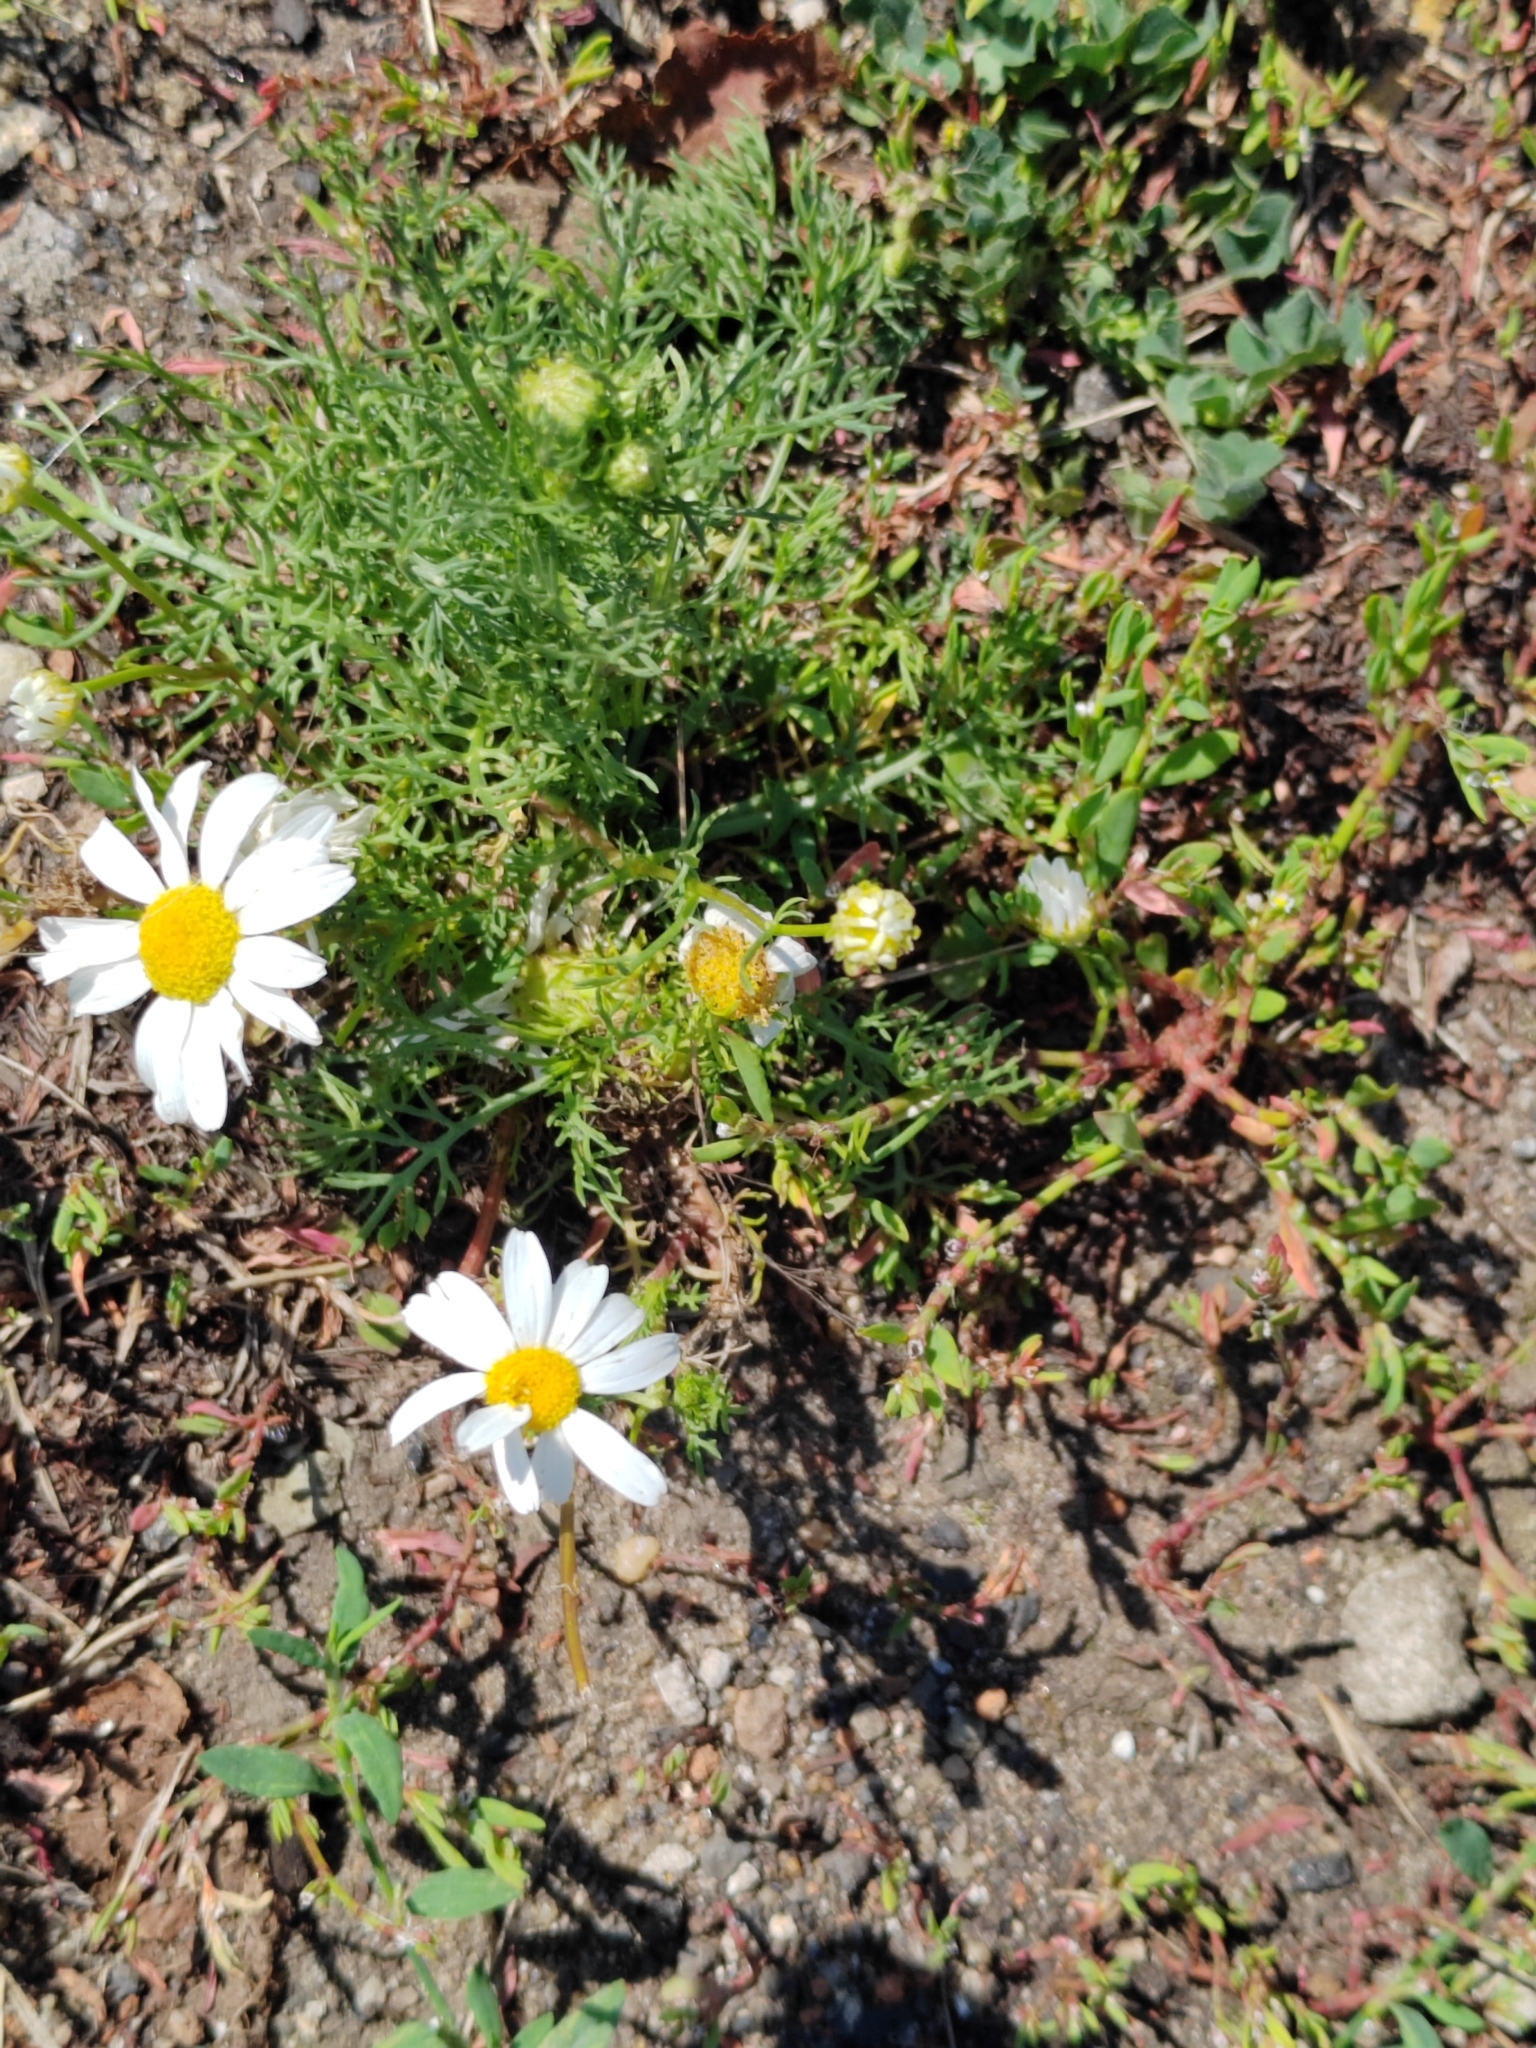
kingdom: Plantae
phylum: Tracheophyta
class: Magnoliopsida
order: Asterales
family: Asteraceae
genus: Tripleurospermum
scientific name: Tripleurospermum inodorum
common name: Scentless mayweed
